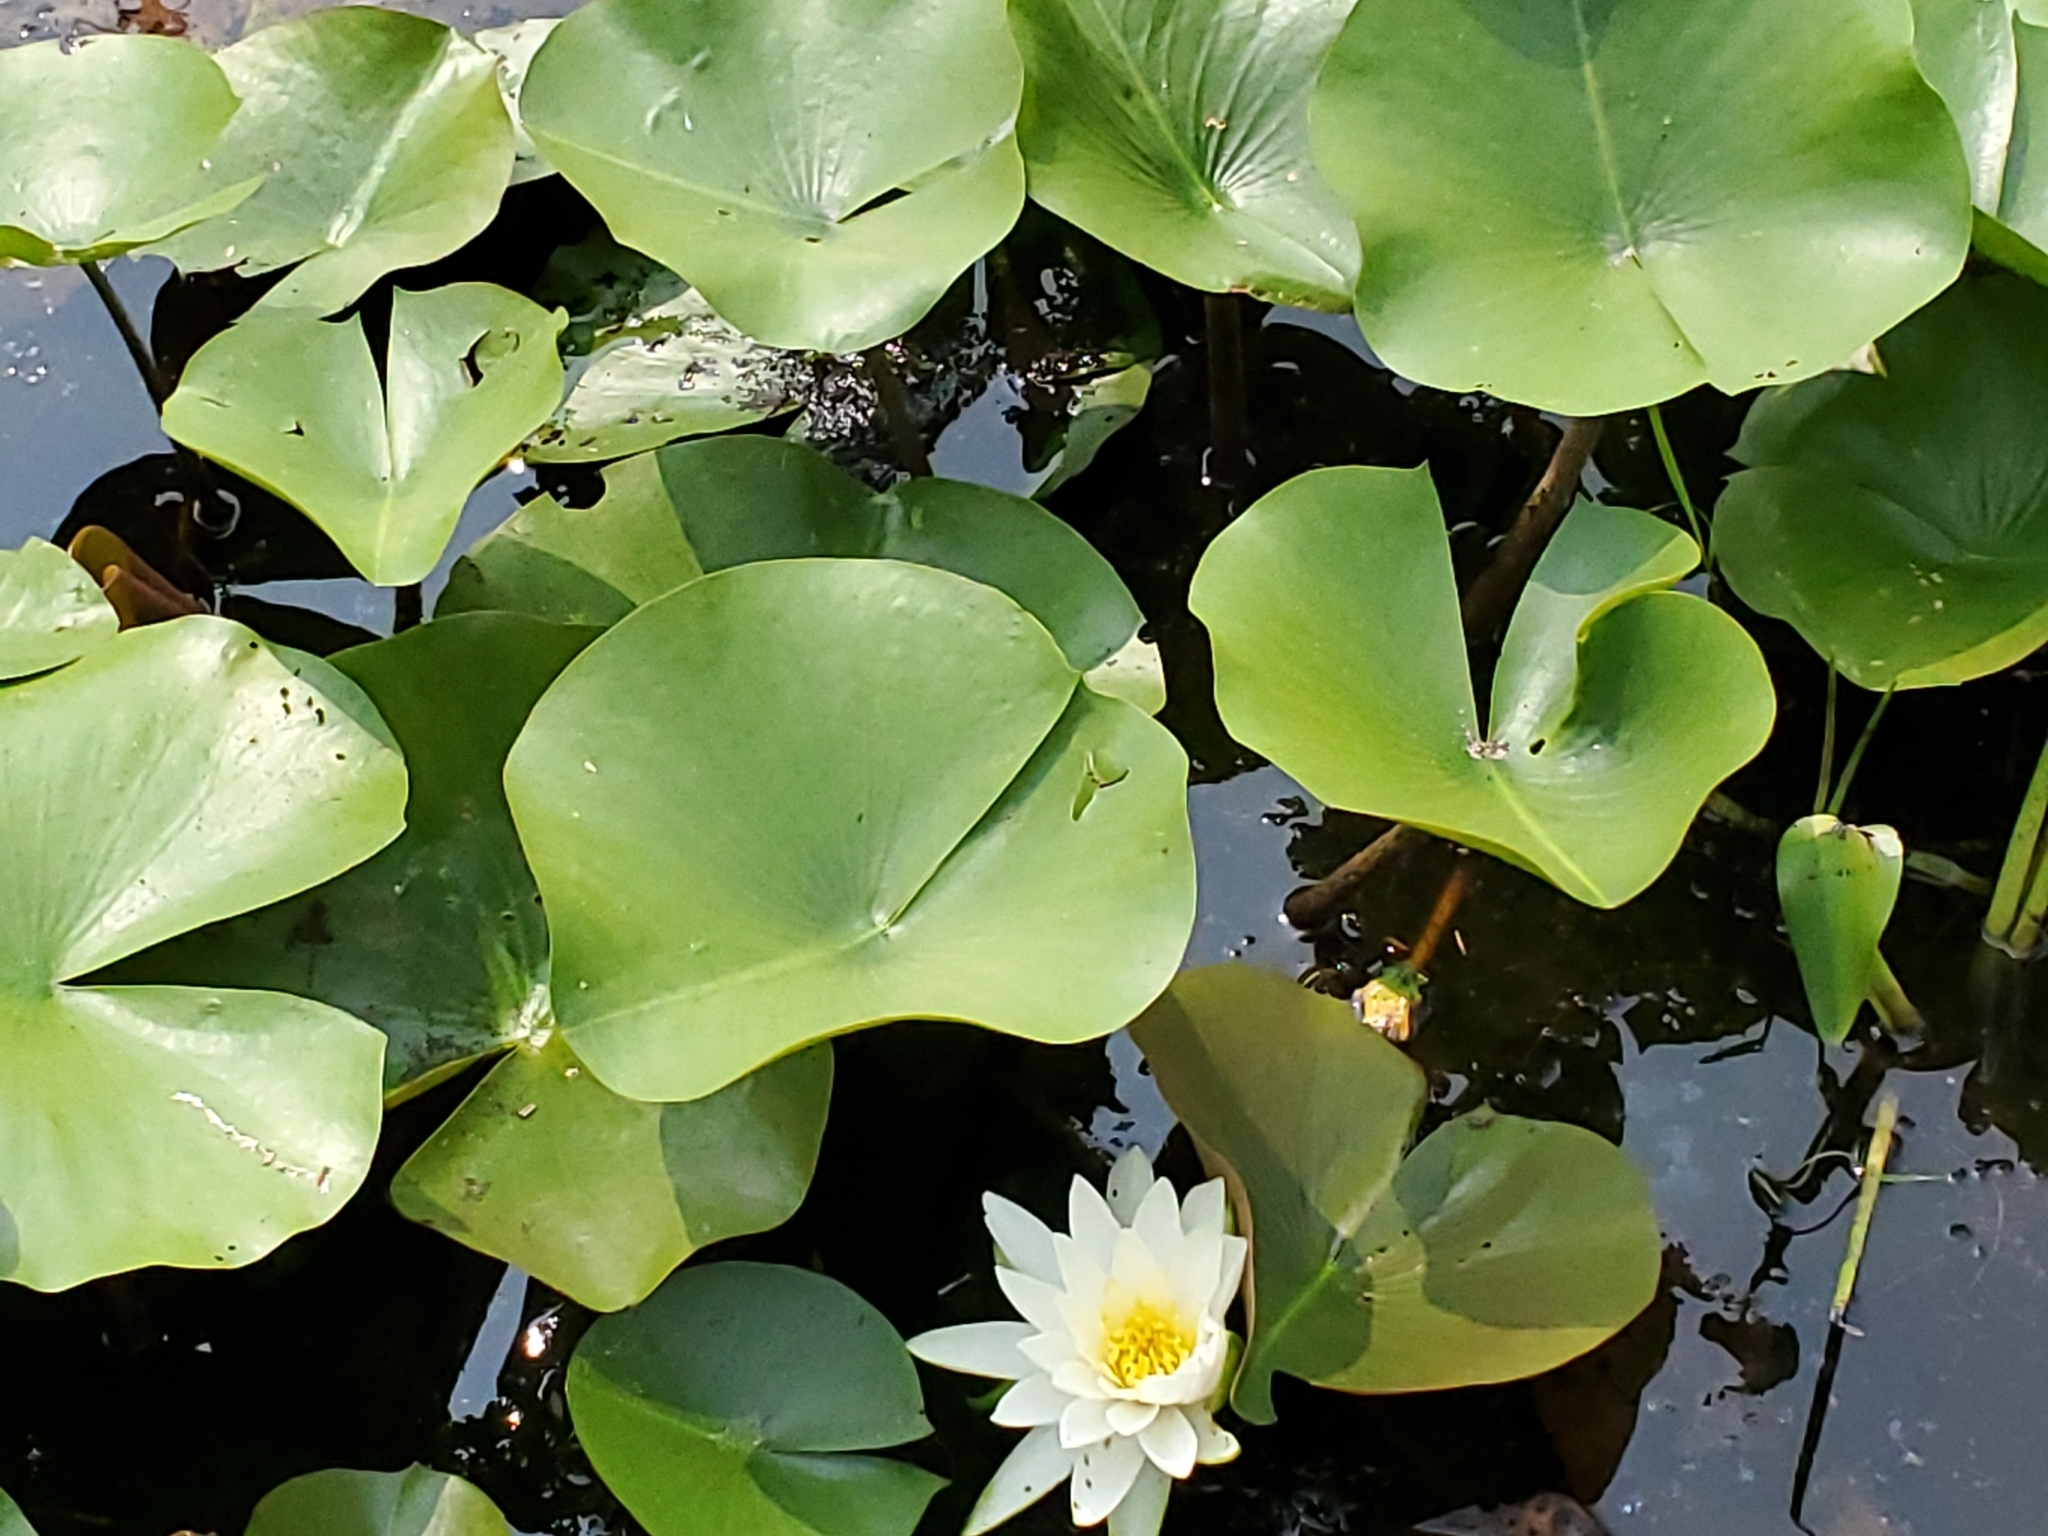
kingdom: Plantae
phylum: Tracheophyta
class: Magnoliopsida
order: Nymphaeales
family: Nymphaeaceae
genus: Nymphaea
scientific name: Nymphaea odorata
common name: Fragrant water-lily
